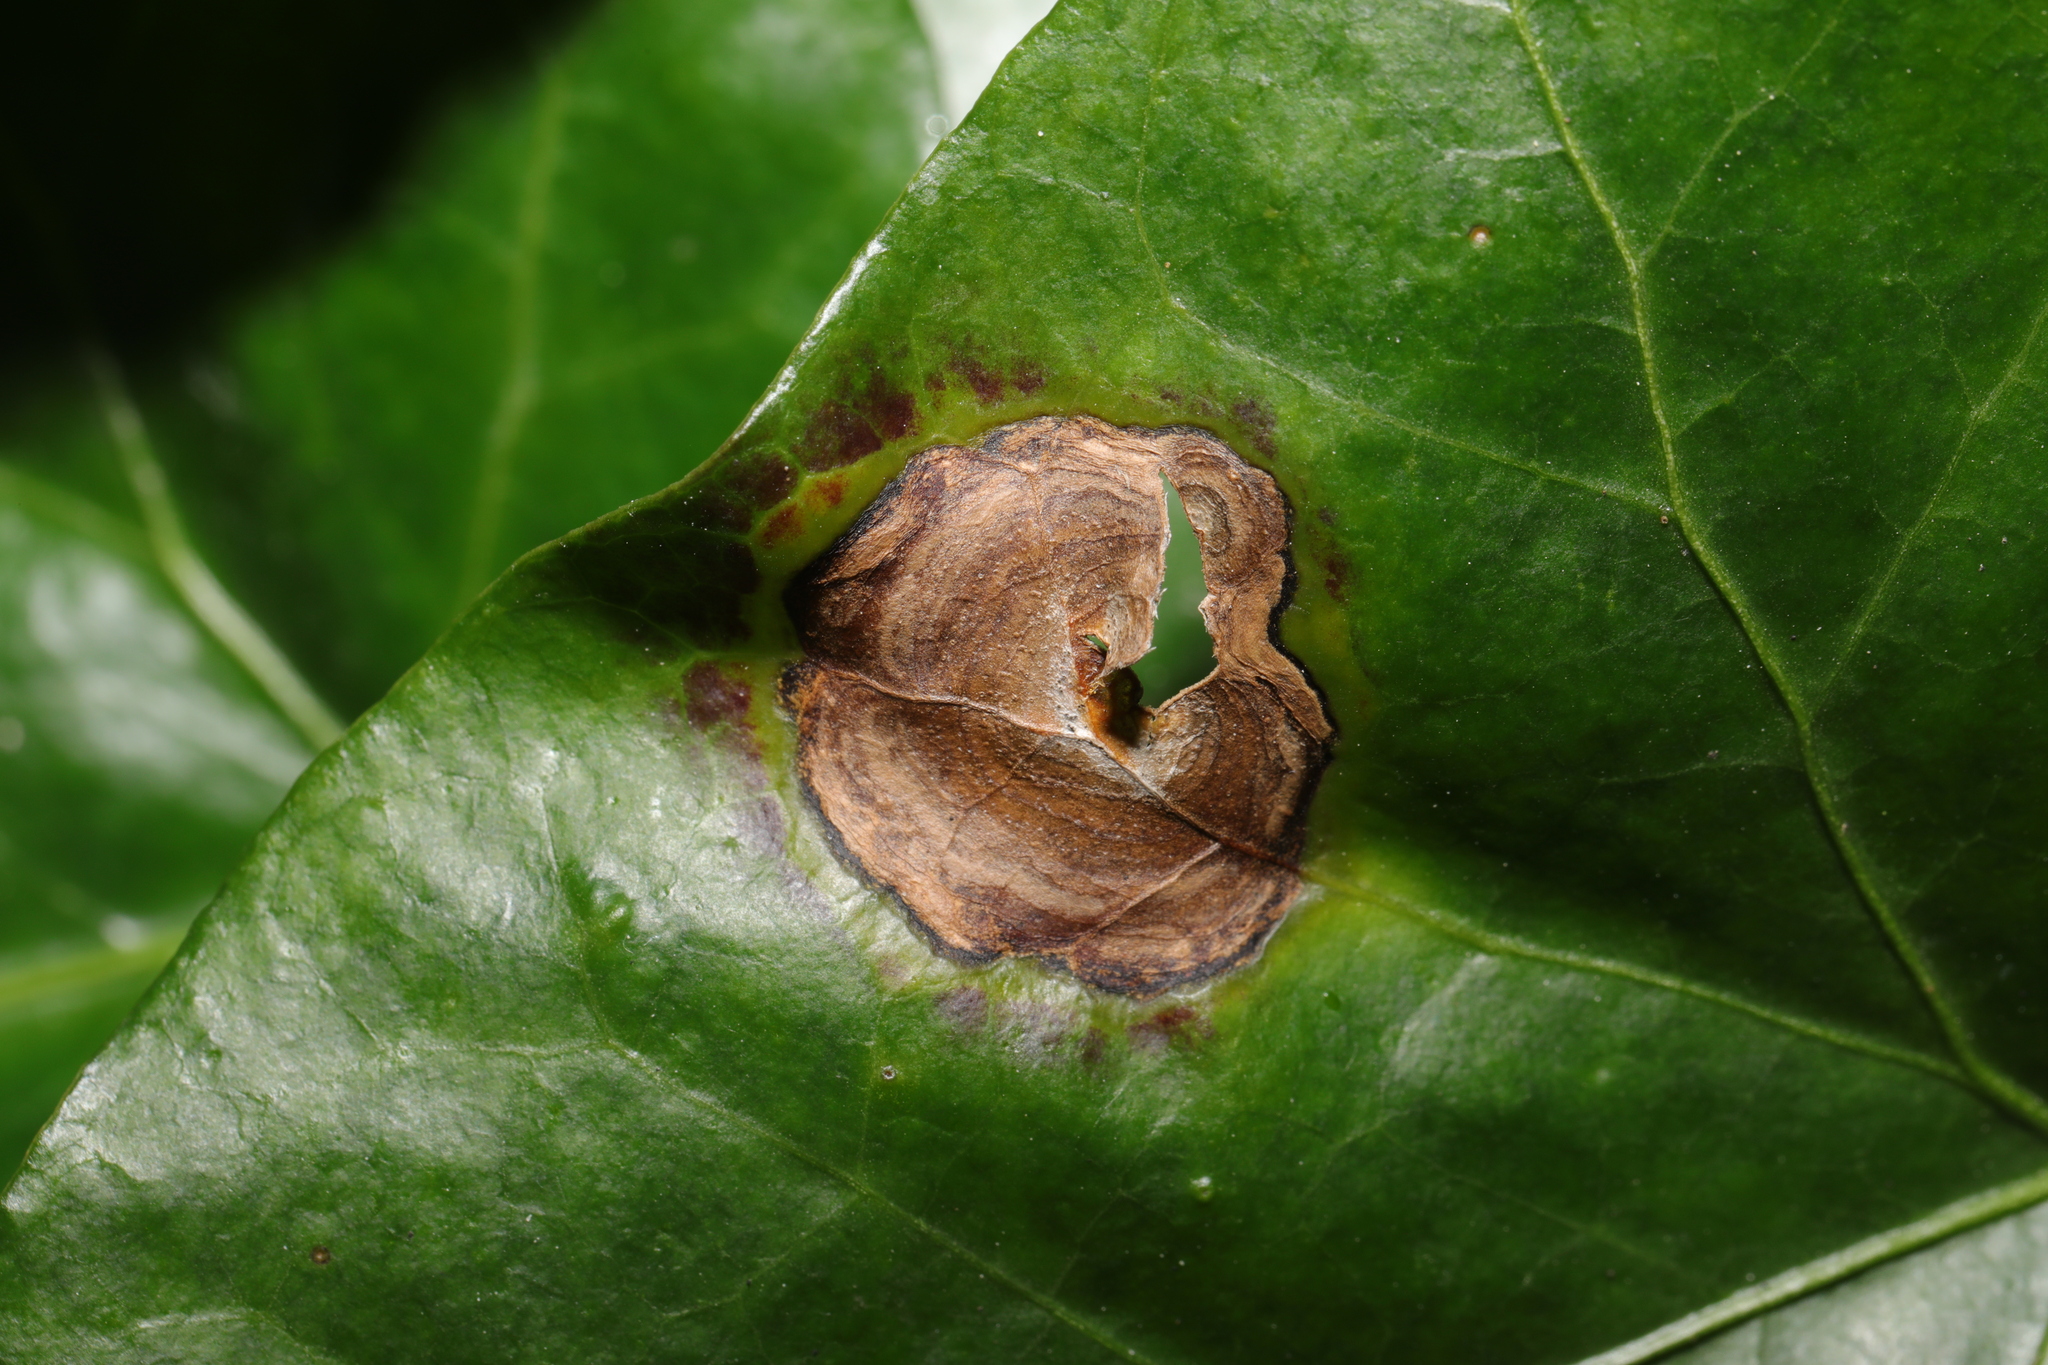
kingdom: Fungi
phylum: Ascomycota
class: Dothideomycetes
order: Pleosporales
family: Didymellaceae
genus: Boeremia
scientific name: Boeremia hedericola
